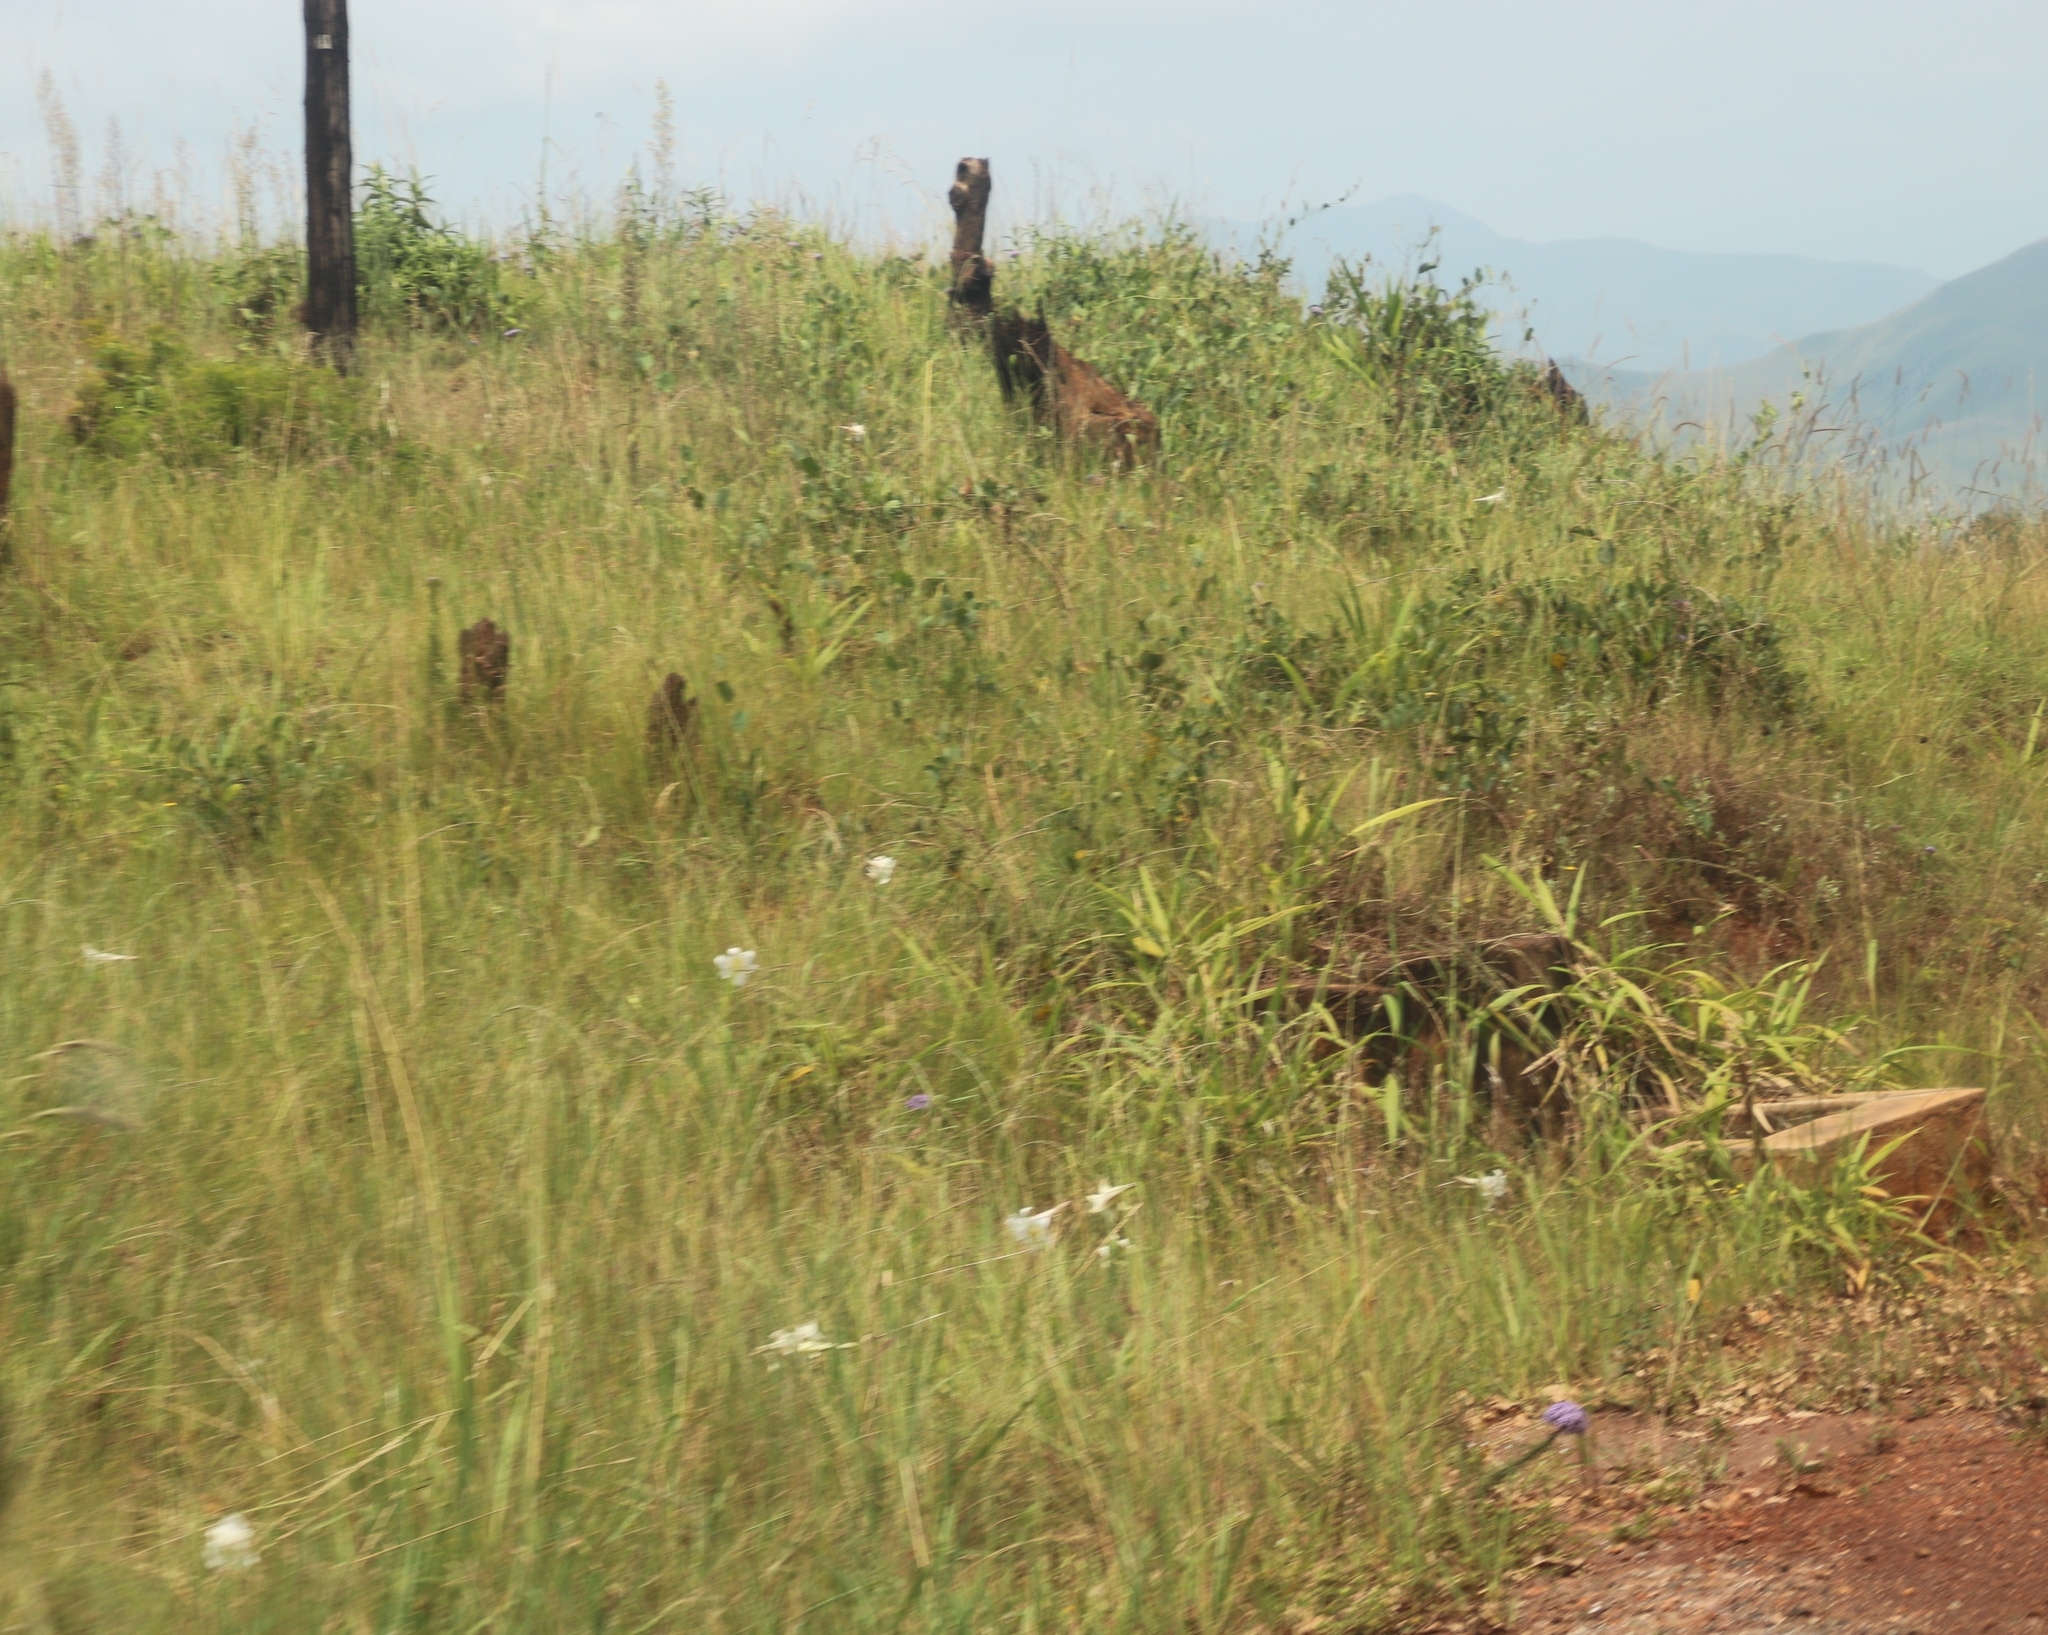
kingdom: Plantae
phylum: Tracheophyta
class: Liliopsida
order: Liliales
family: Liliaceae
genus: Lilium
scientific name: Lilium formosanum
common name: Formosa lily
